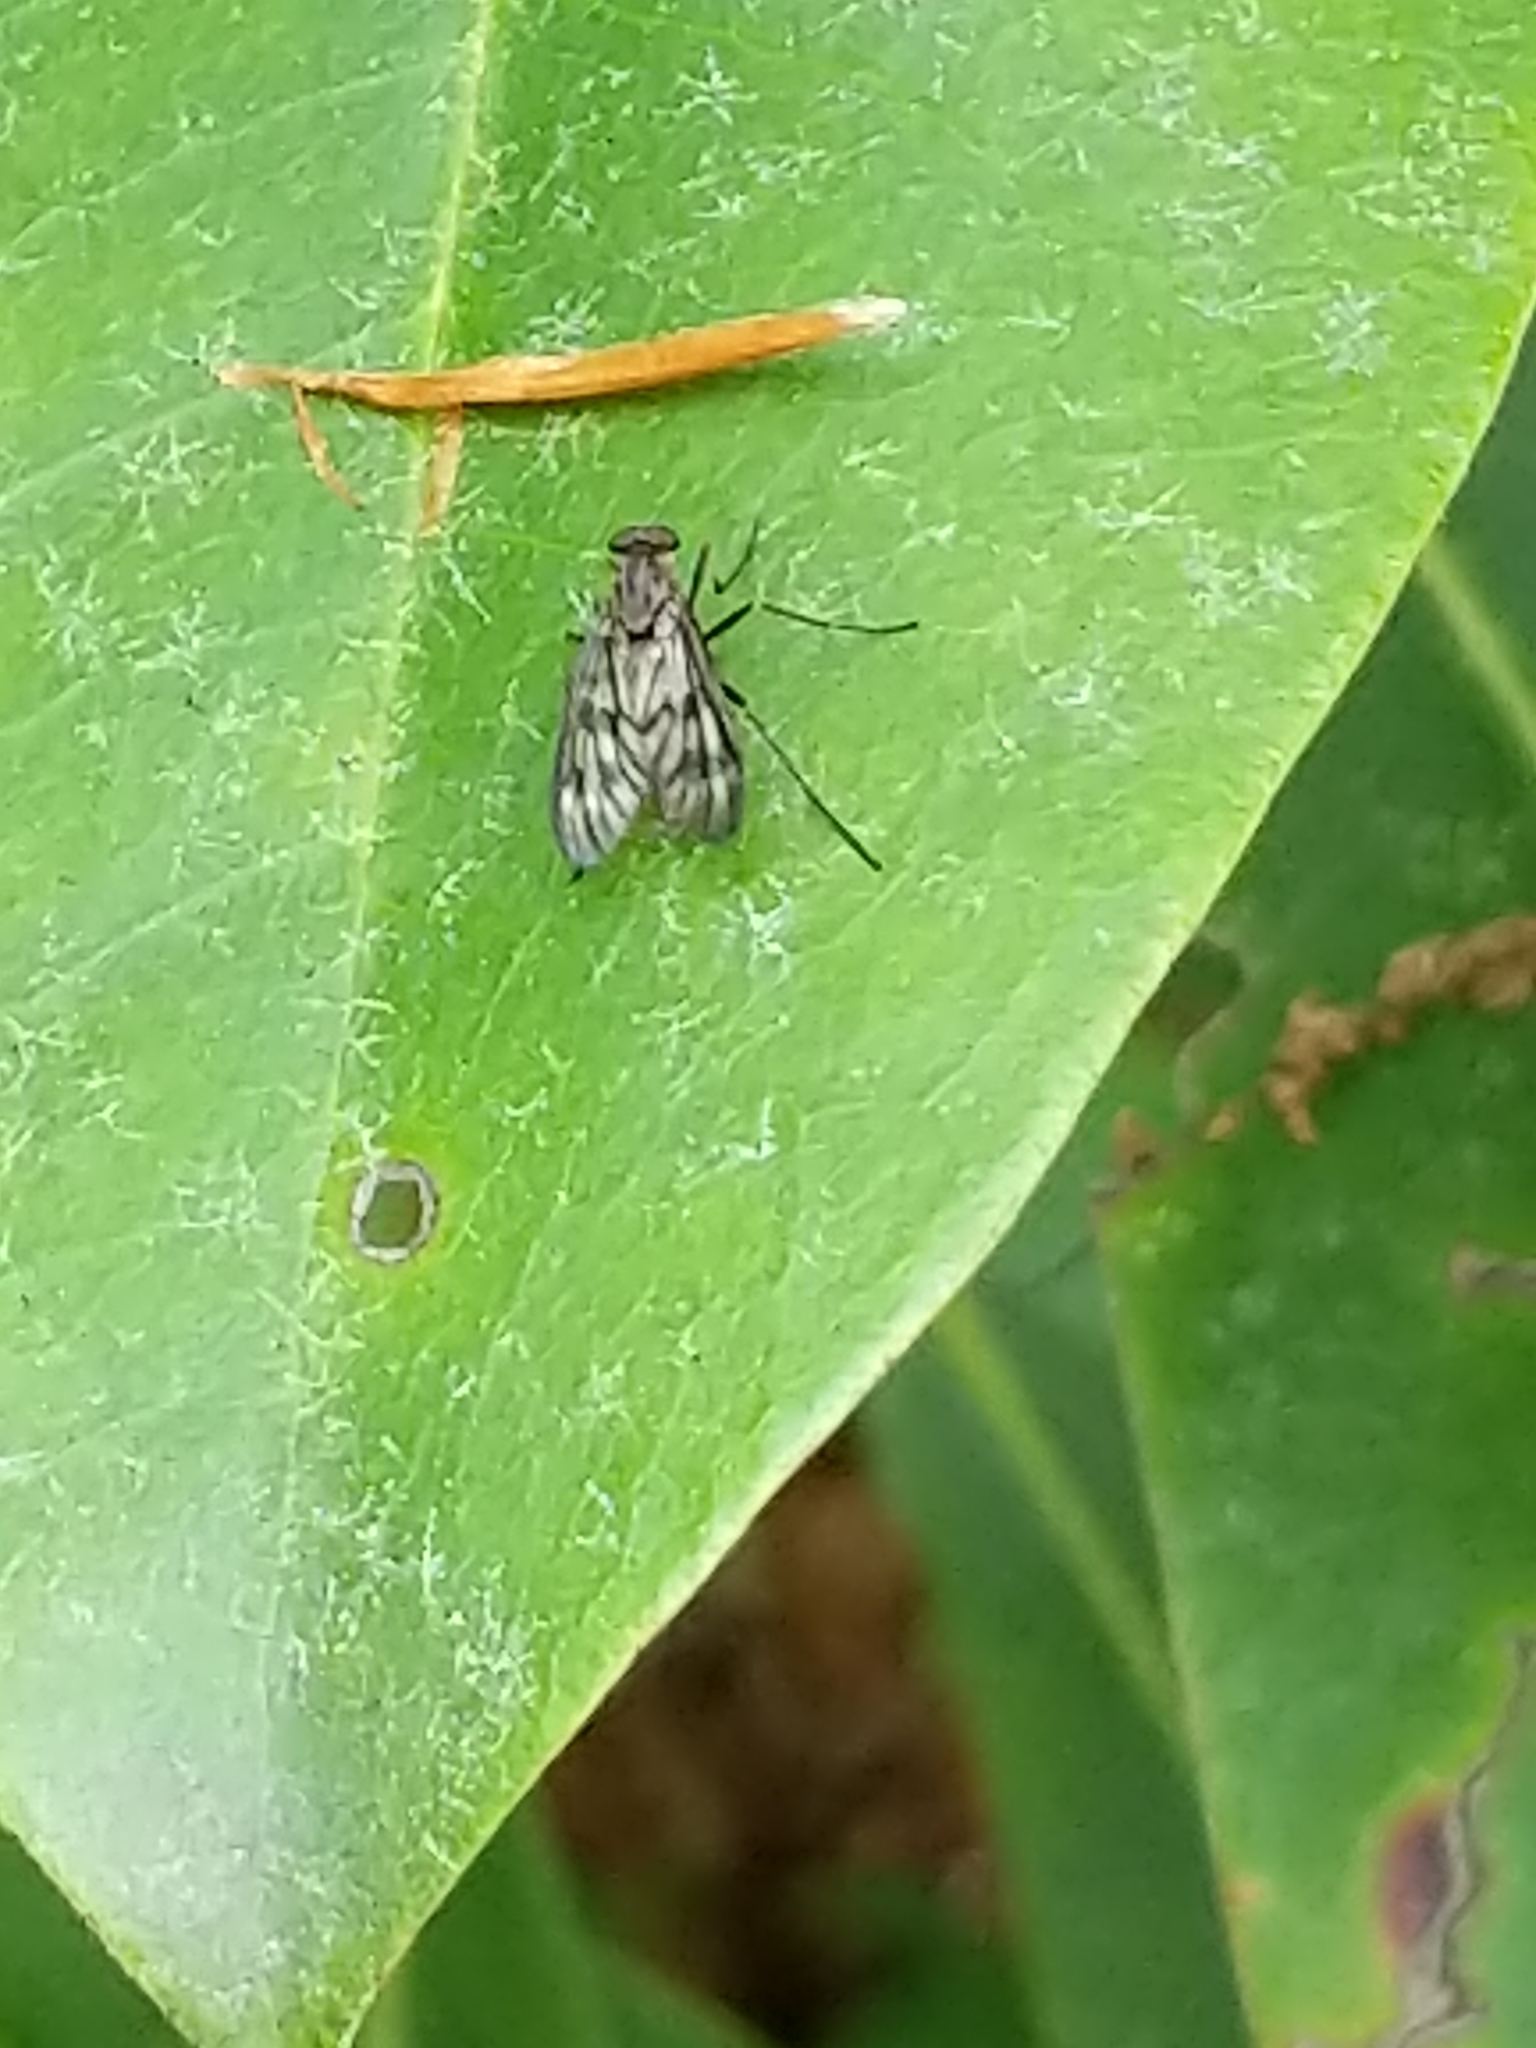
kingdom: Animalia
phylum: Arthropoda
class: Insecta
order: Diptera
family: Rhagionidae
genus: Rhagio
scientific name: Rhagio mystaceus
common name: Common snipe fly
